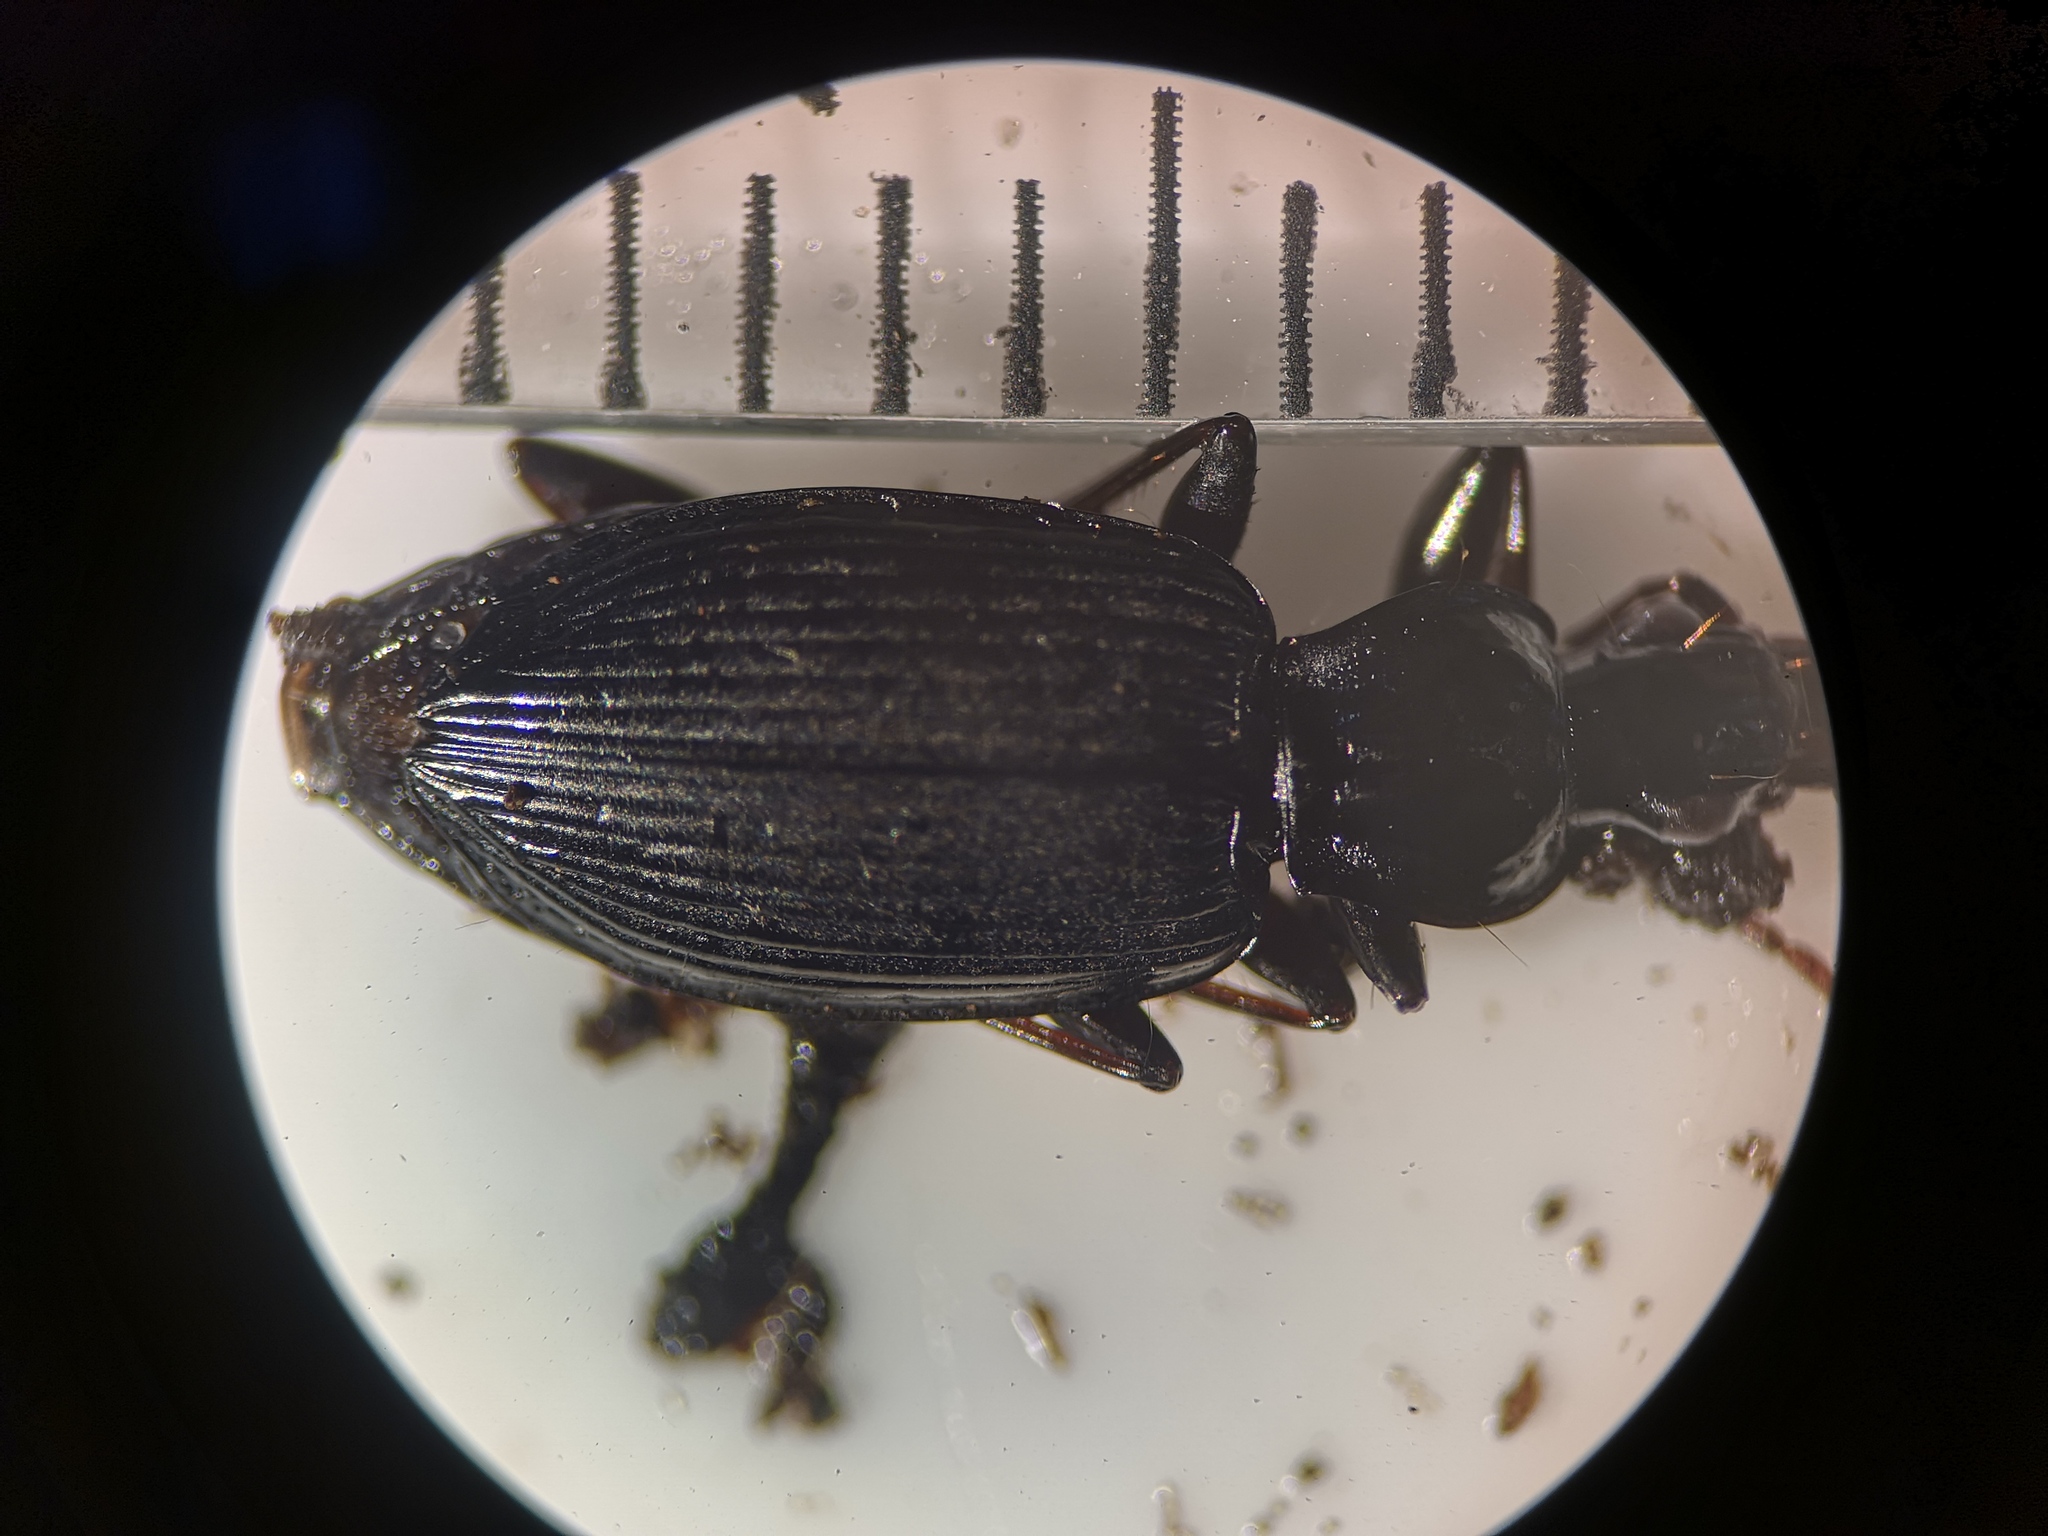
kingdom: Animalia
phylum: Arthropoda
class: Insecta
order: Coleoptera
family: Carabidae
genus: Platynus
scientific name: Platynus assimilis
